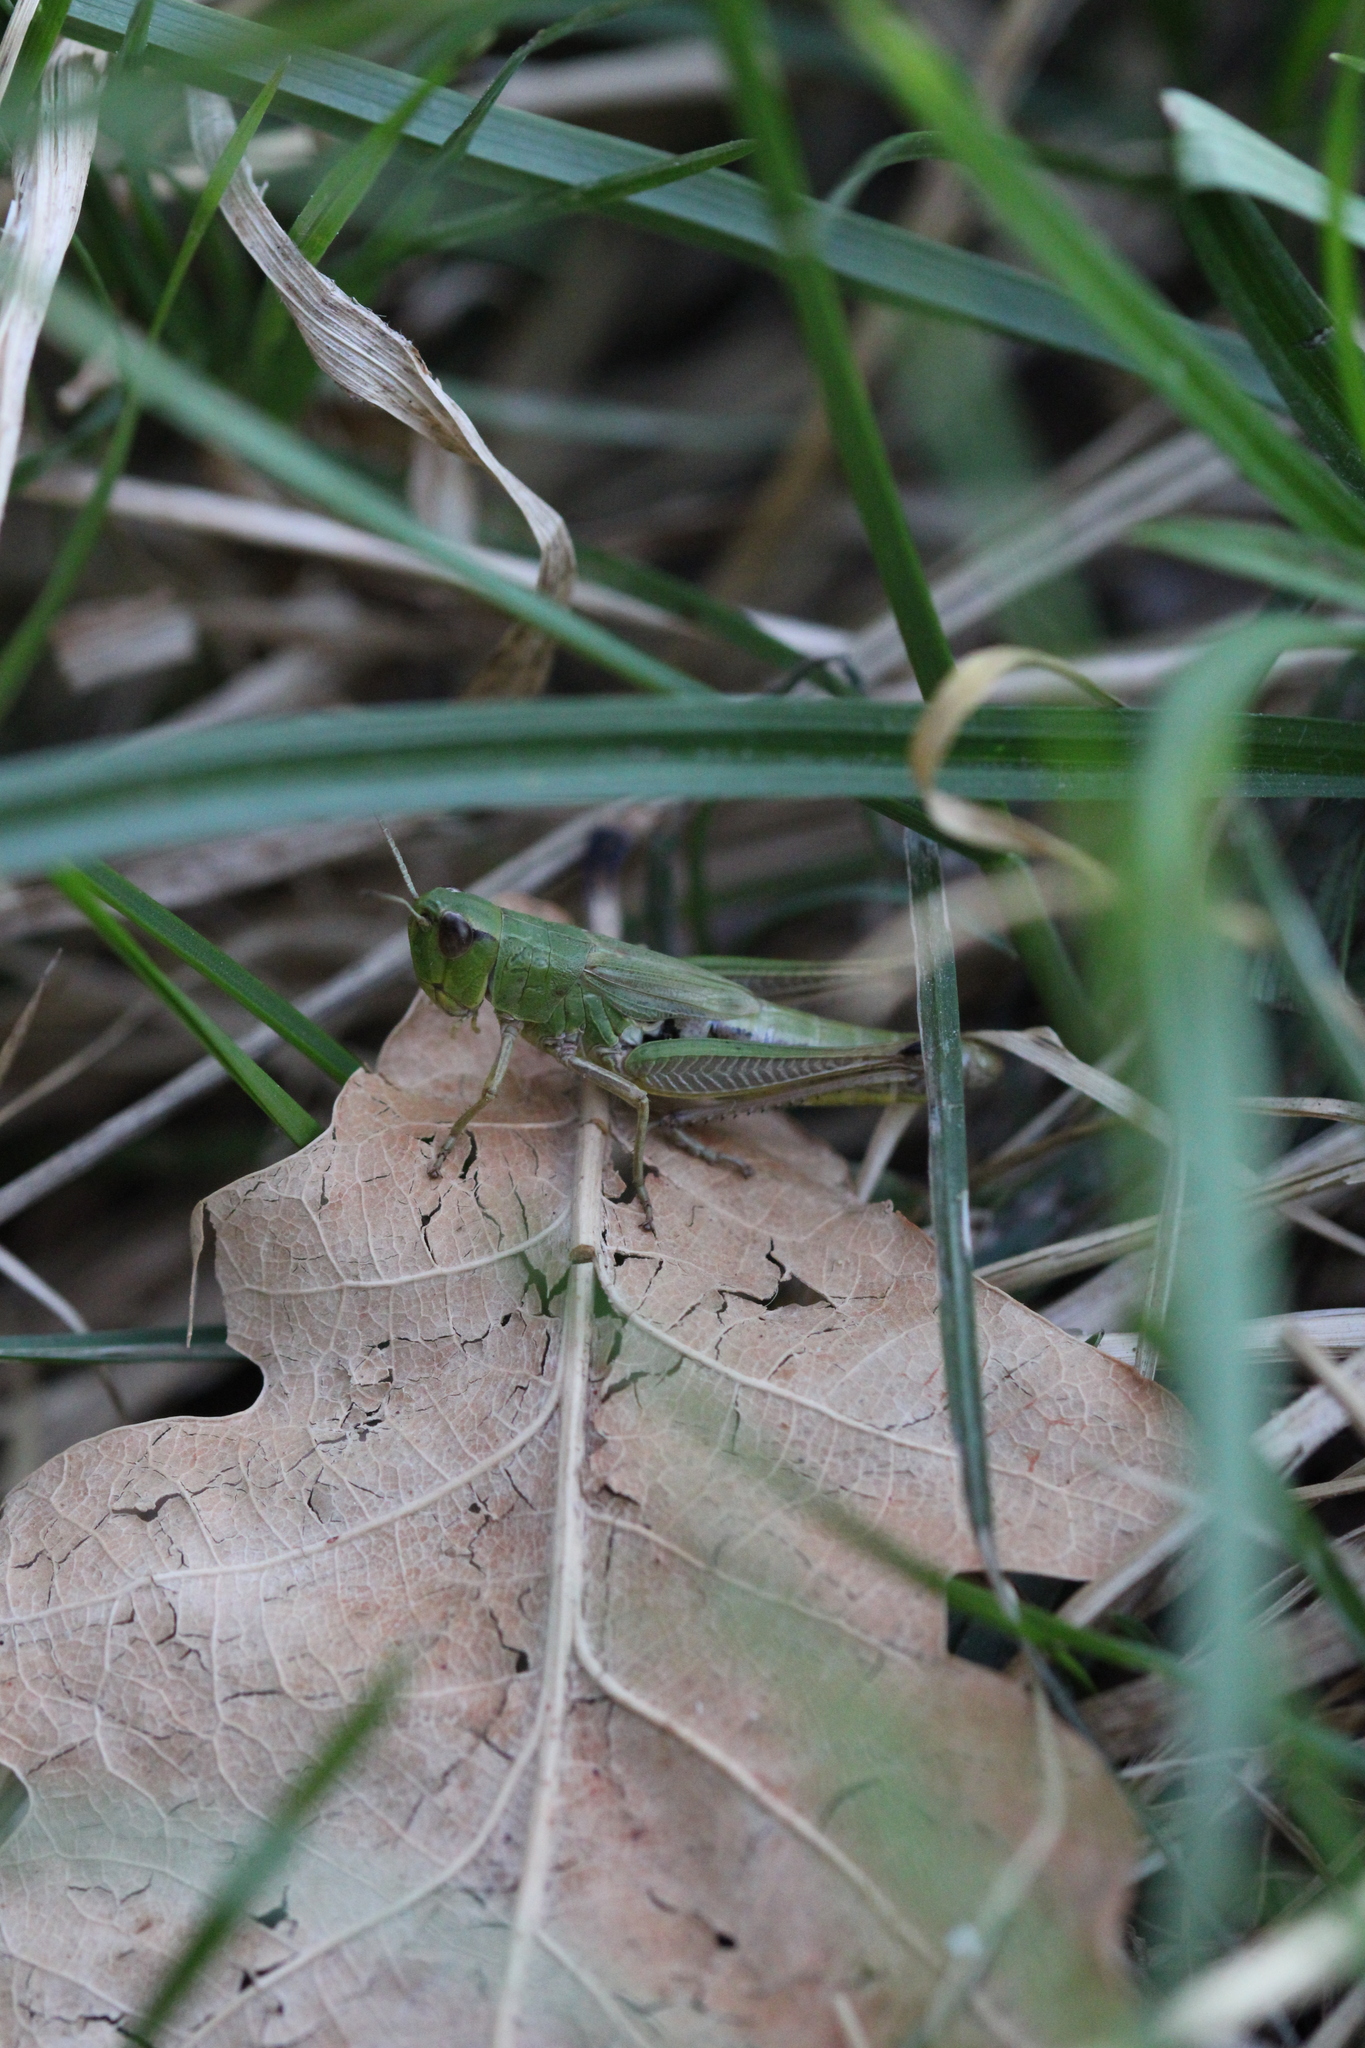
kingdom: Animalia
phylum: Arthropoda
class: Insecta
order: Orthoptera
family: Acrididae
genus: Pseudochorthippus
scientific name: Pseudochorthippus parallelus
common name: Meadow grasshopper
